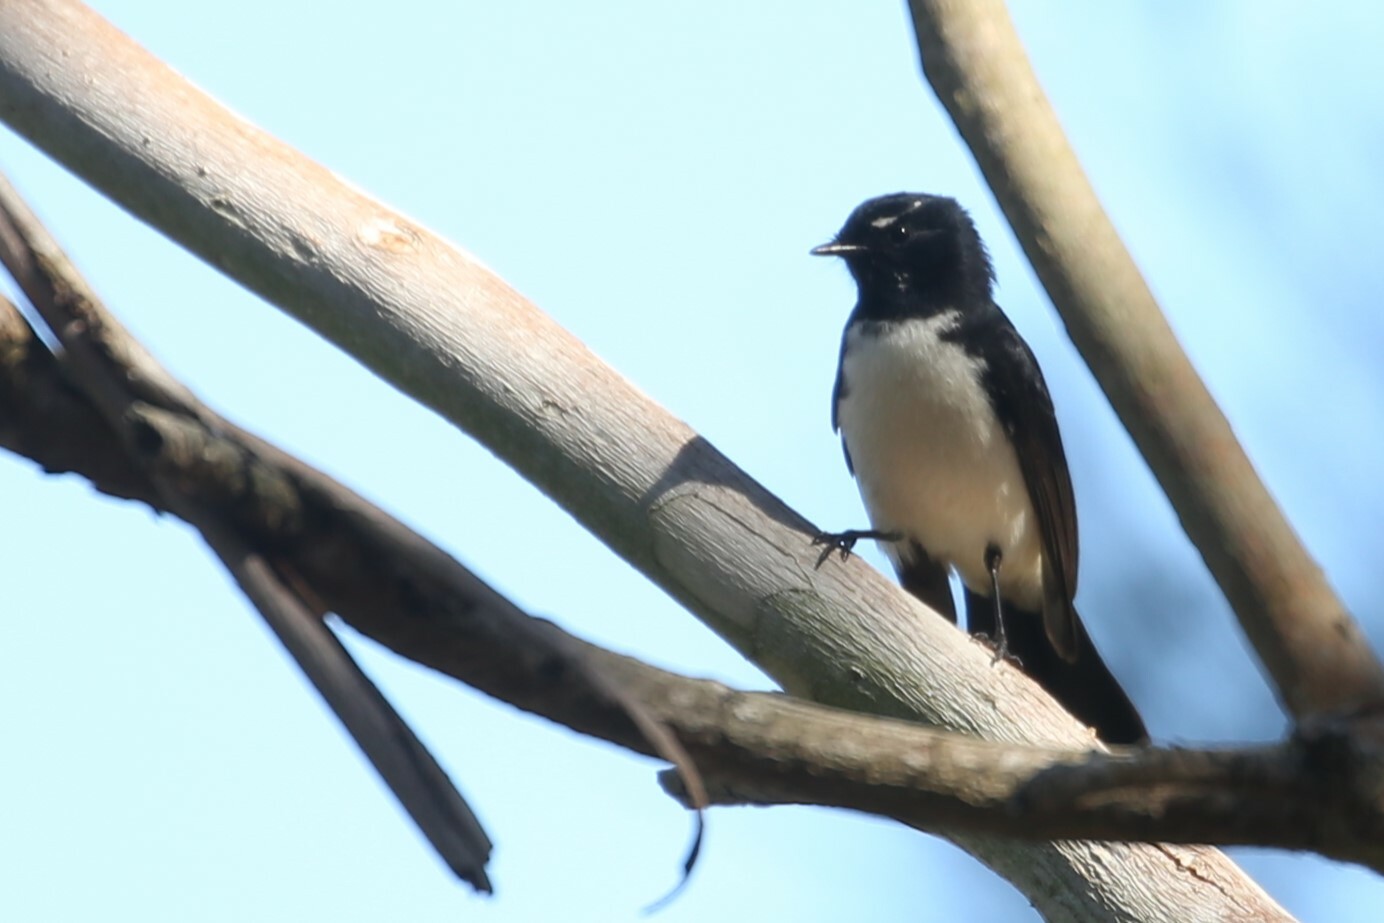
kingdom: Animalia
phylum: Chordata
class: Aves
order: Passeriformes
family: Rhipiduridae
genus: Rhipidura
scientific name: Rhipidura leucophrys
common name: Willie wagtail
